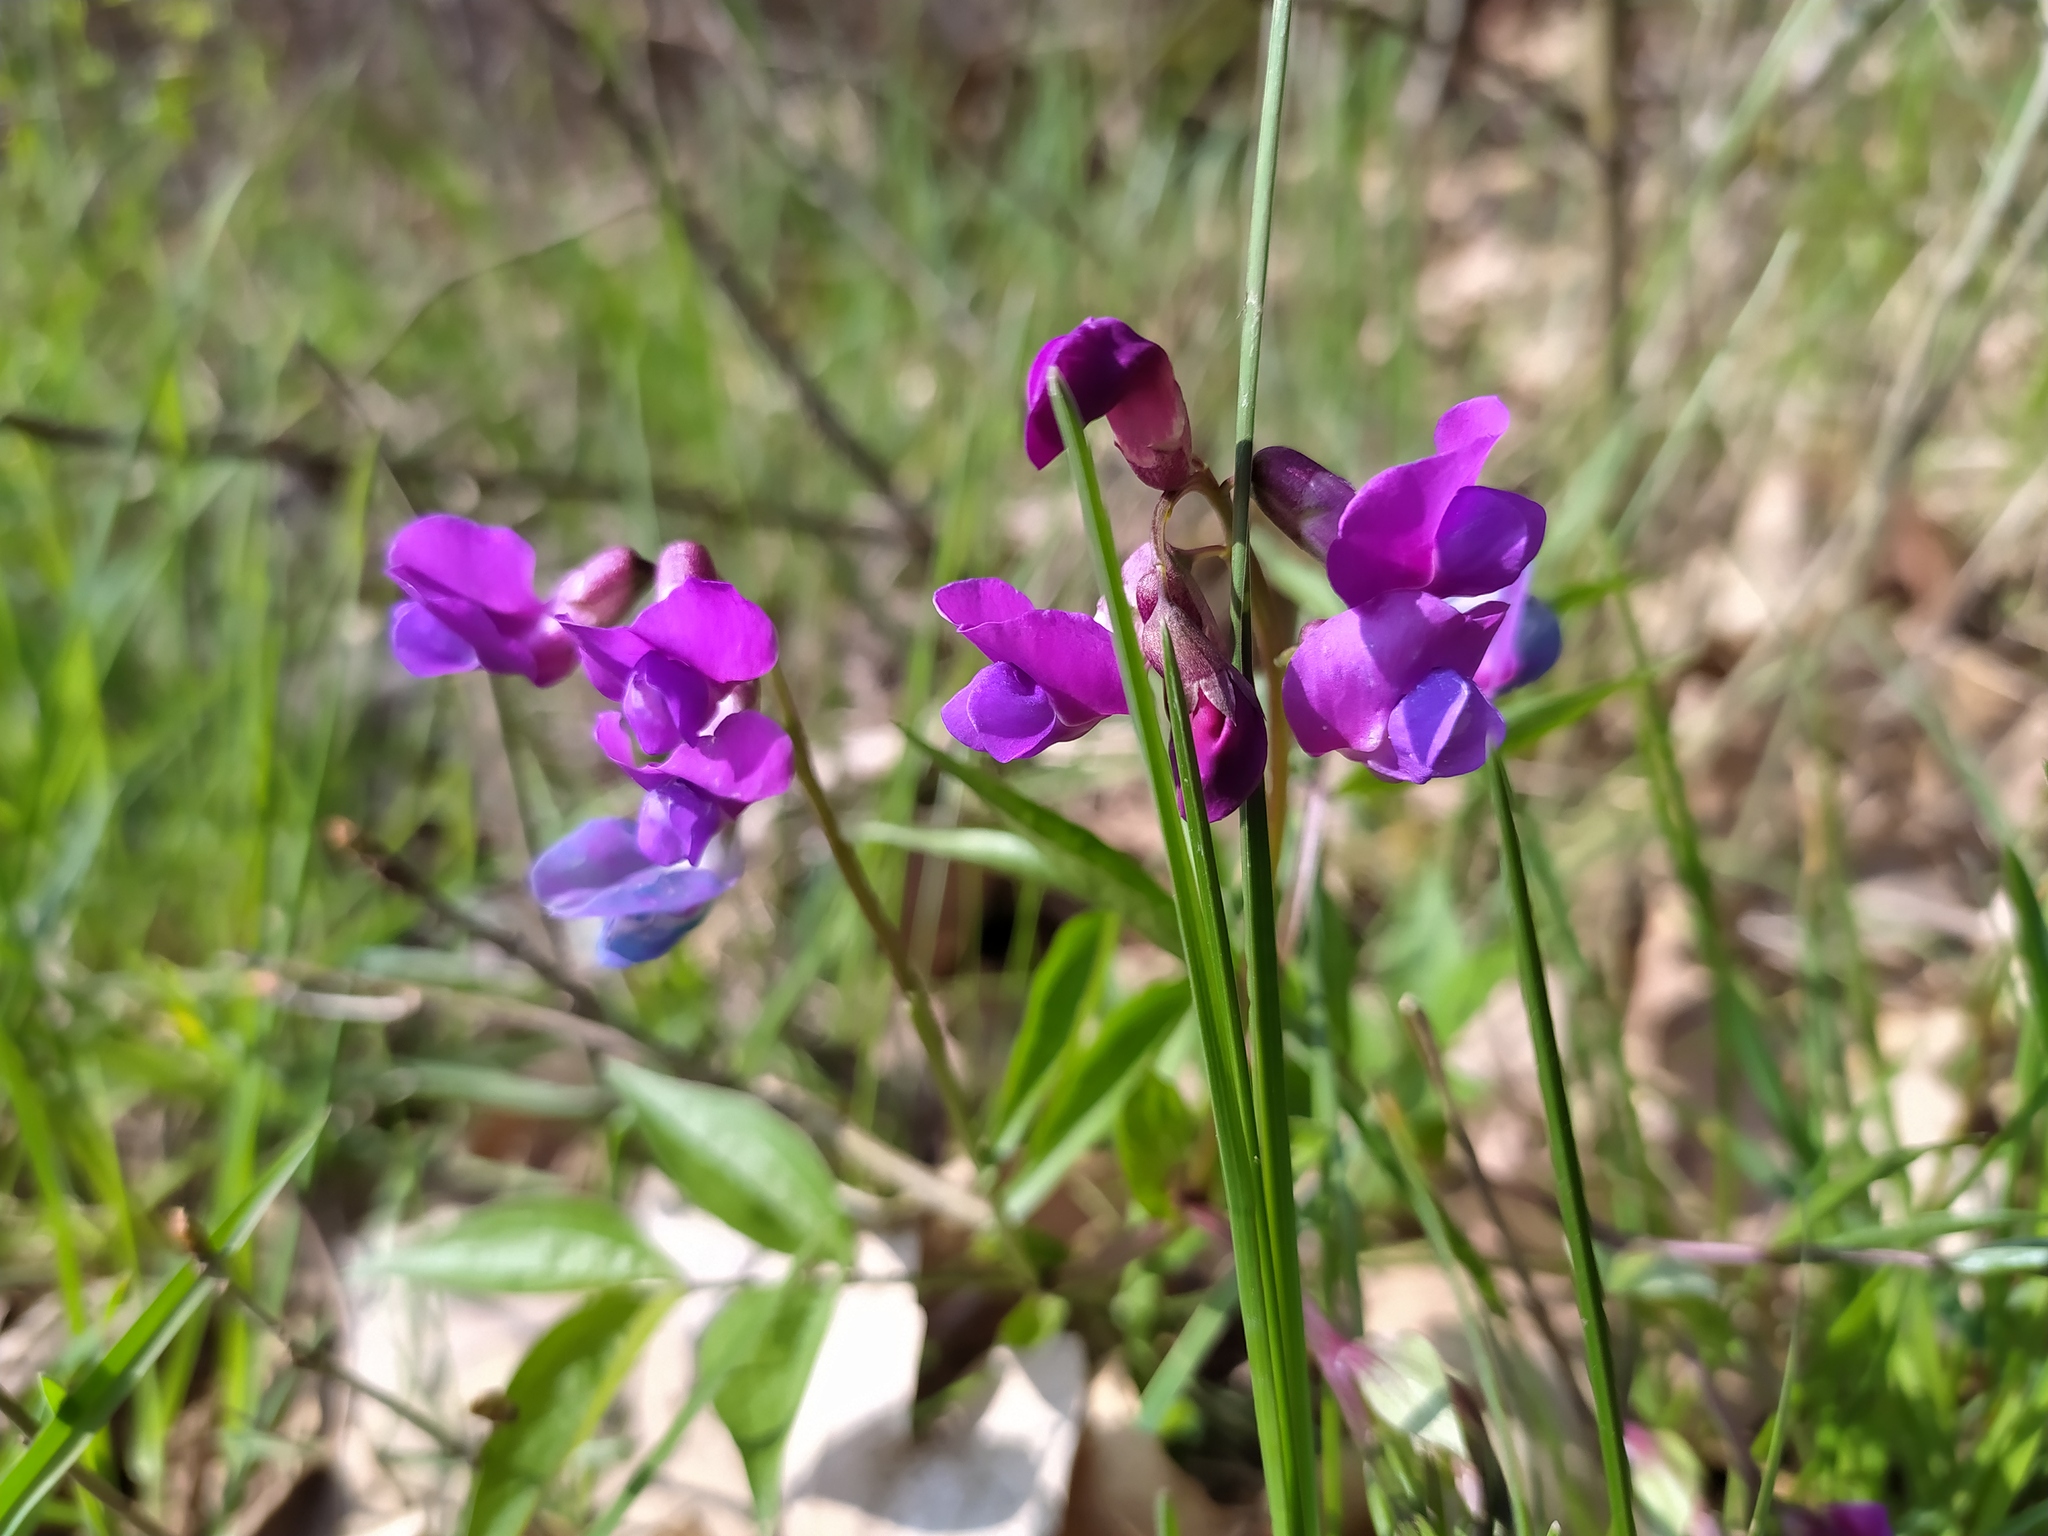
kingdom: Plantae
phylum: Tracheophyta
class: Magnoliopsida
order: Fabales
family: Fabaceae
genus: Lathyrus
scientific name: Lathyrus vernus
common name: Spring pea
